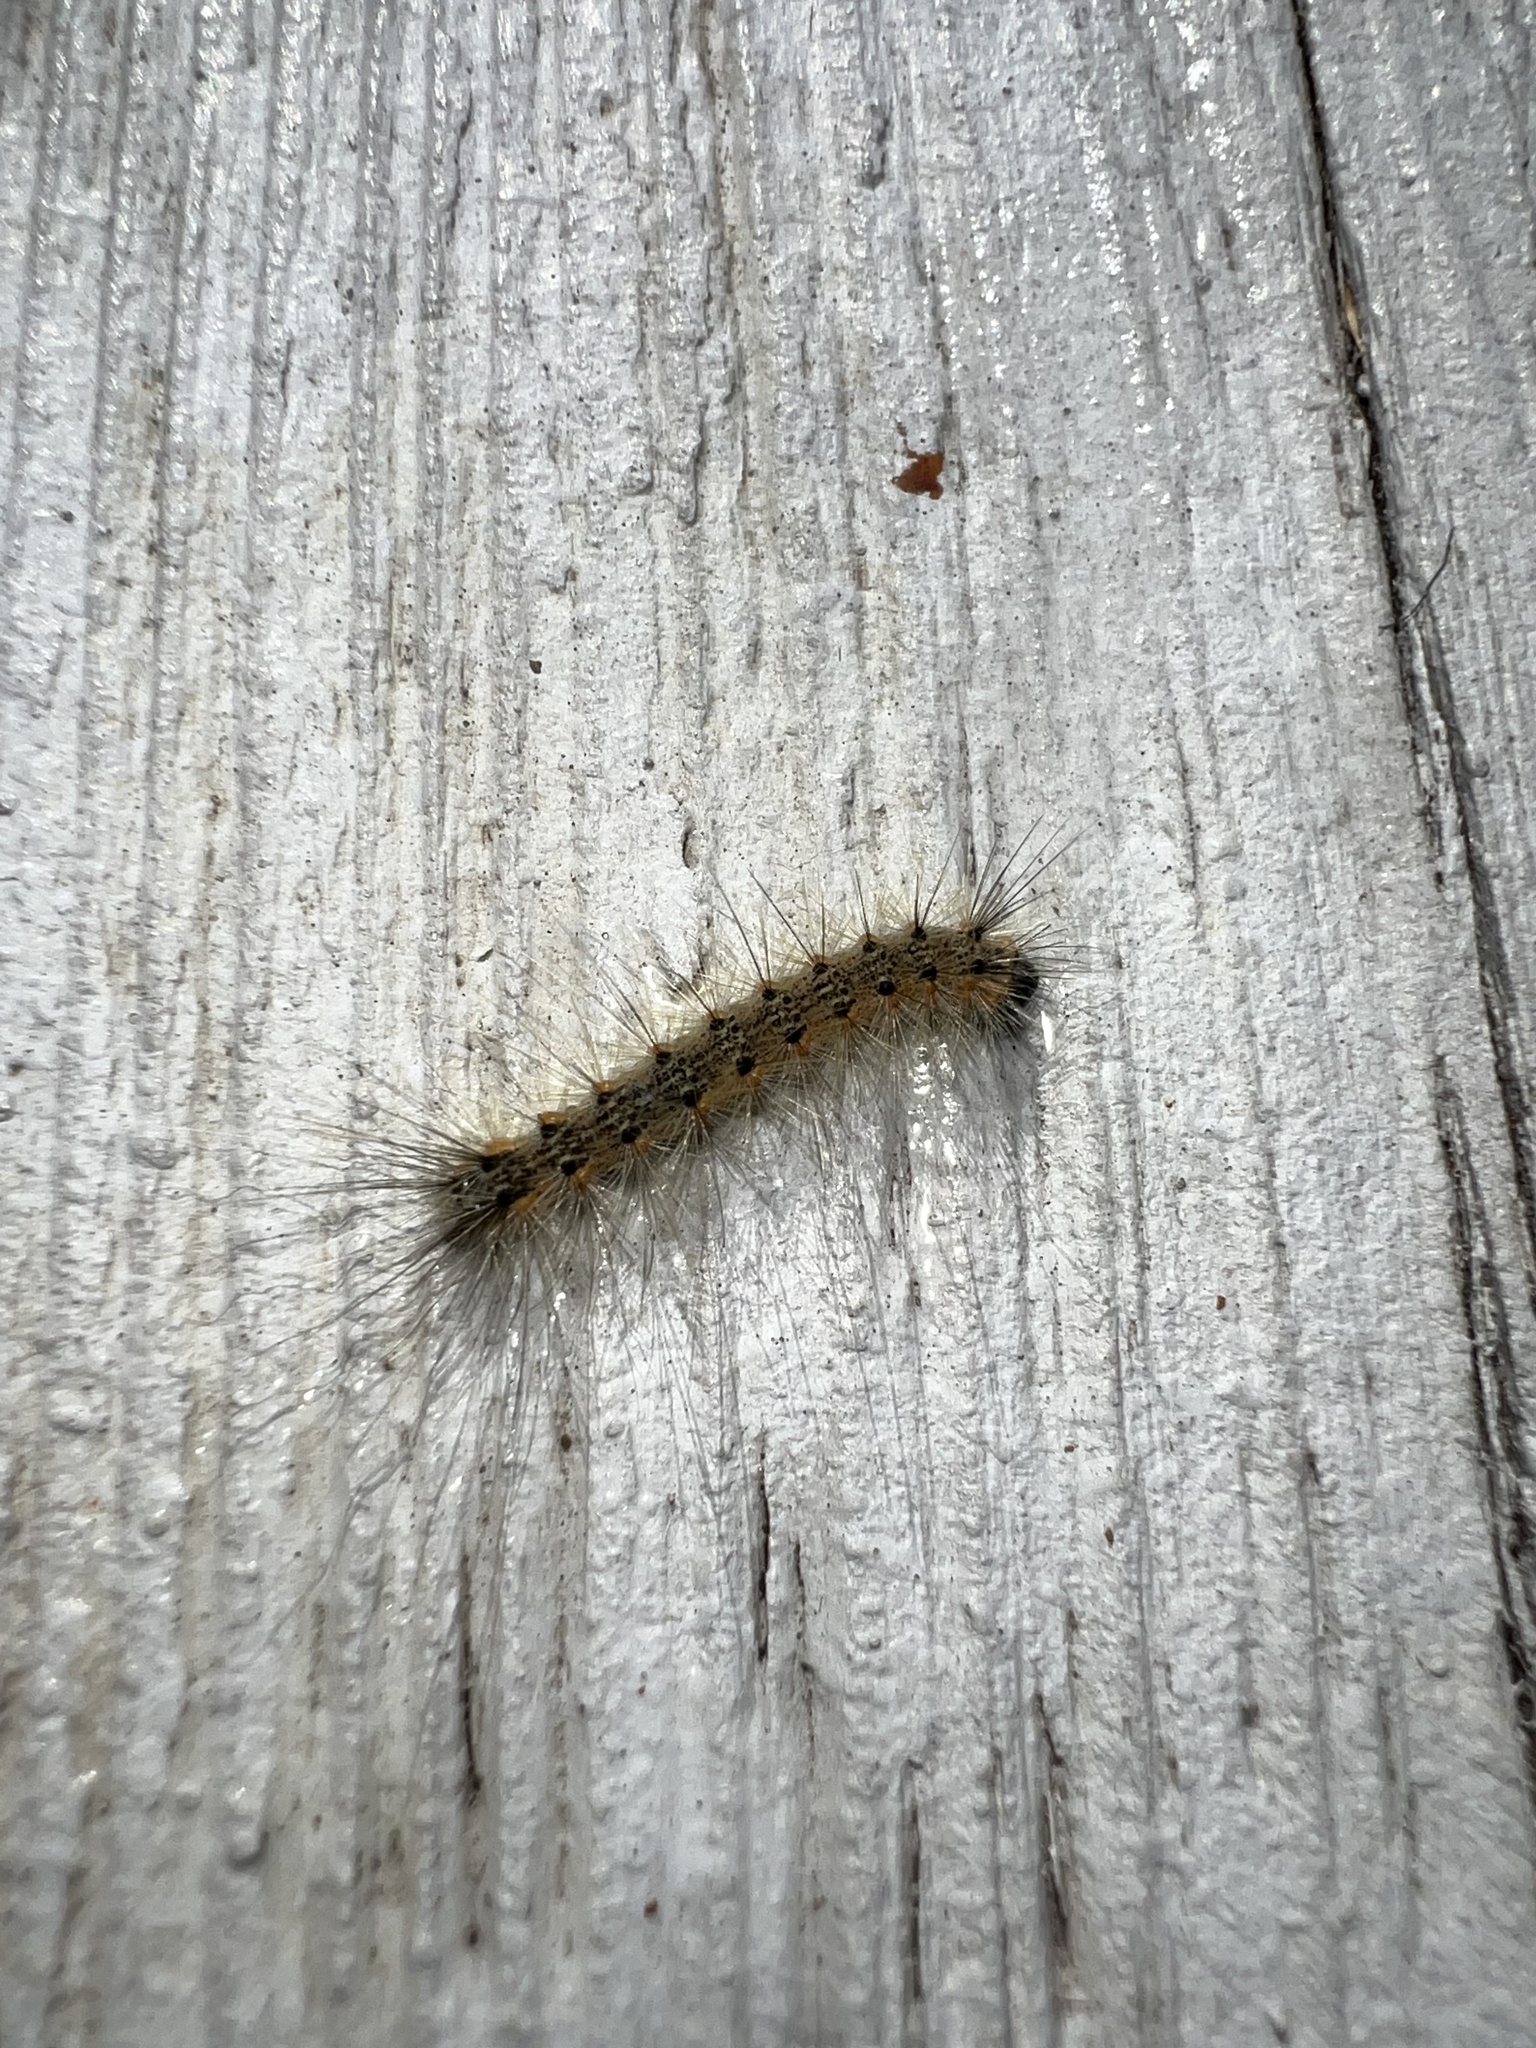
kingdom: Animalia
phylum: Arthropoda
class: Insecta
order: Lepidoptera
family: Erebidae
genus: Hyphantria
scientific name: Hyphantria cunea
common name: American white moth
